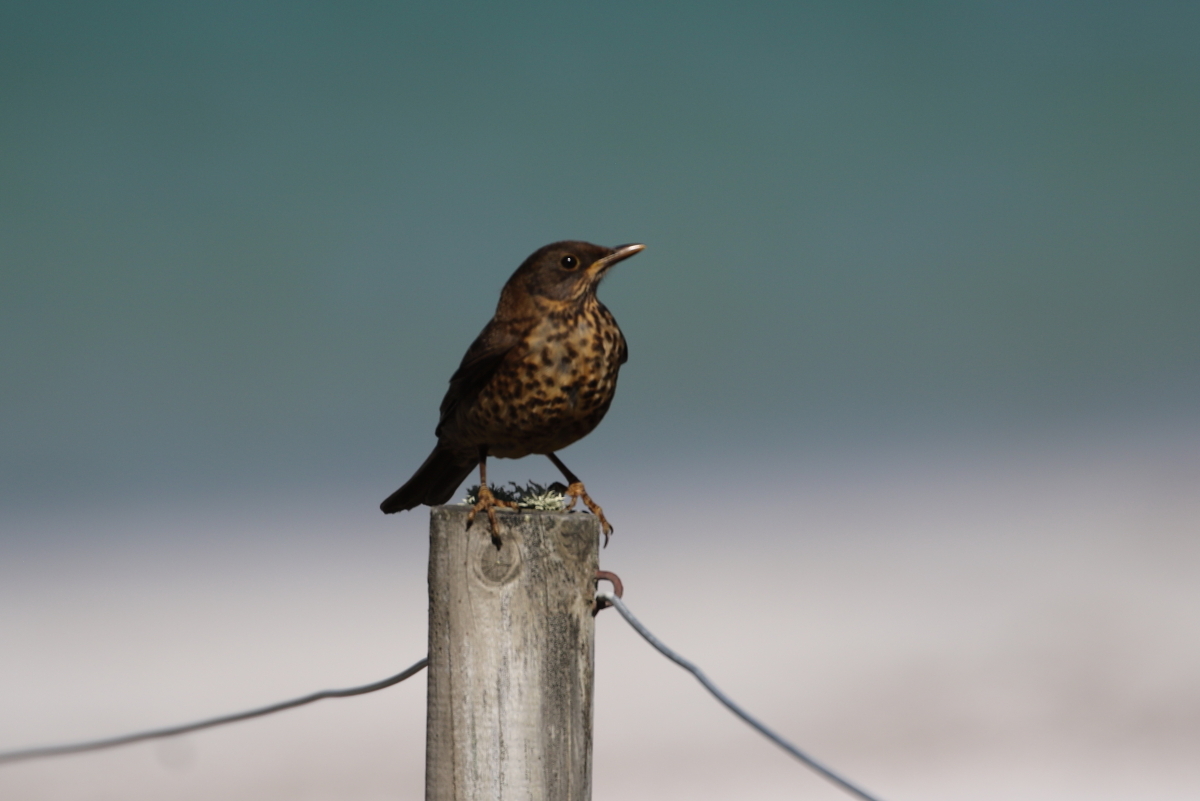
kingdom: Animalia
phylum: Chordata
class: Aves
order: Passeriformes
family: Turdidae
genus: Turdus
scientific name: Turdus falcklandii
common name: Austral thrush
